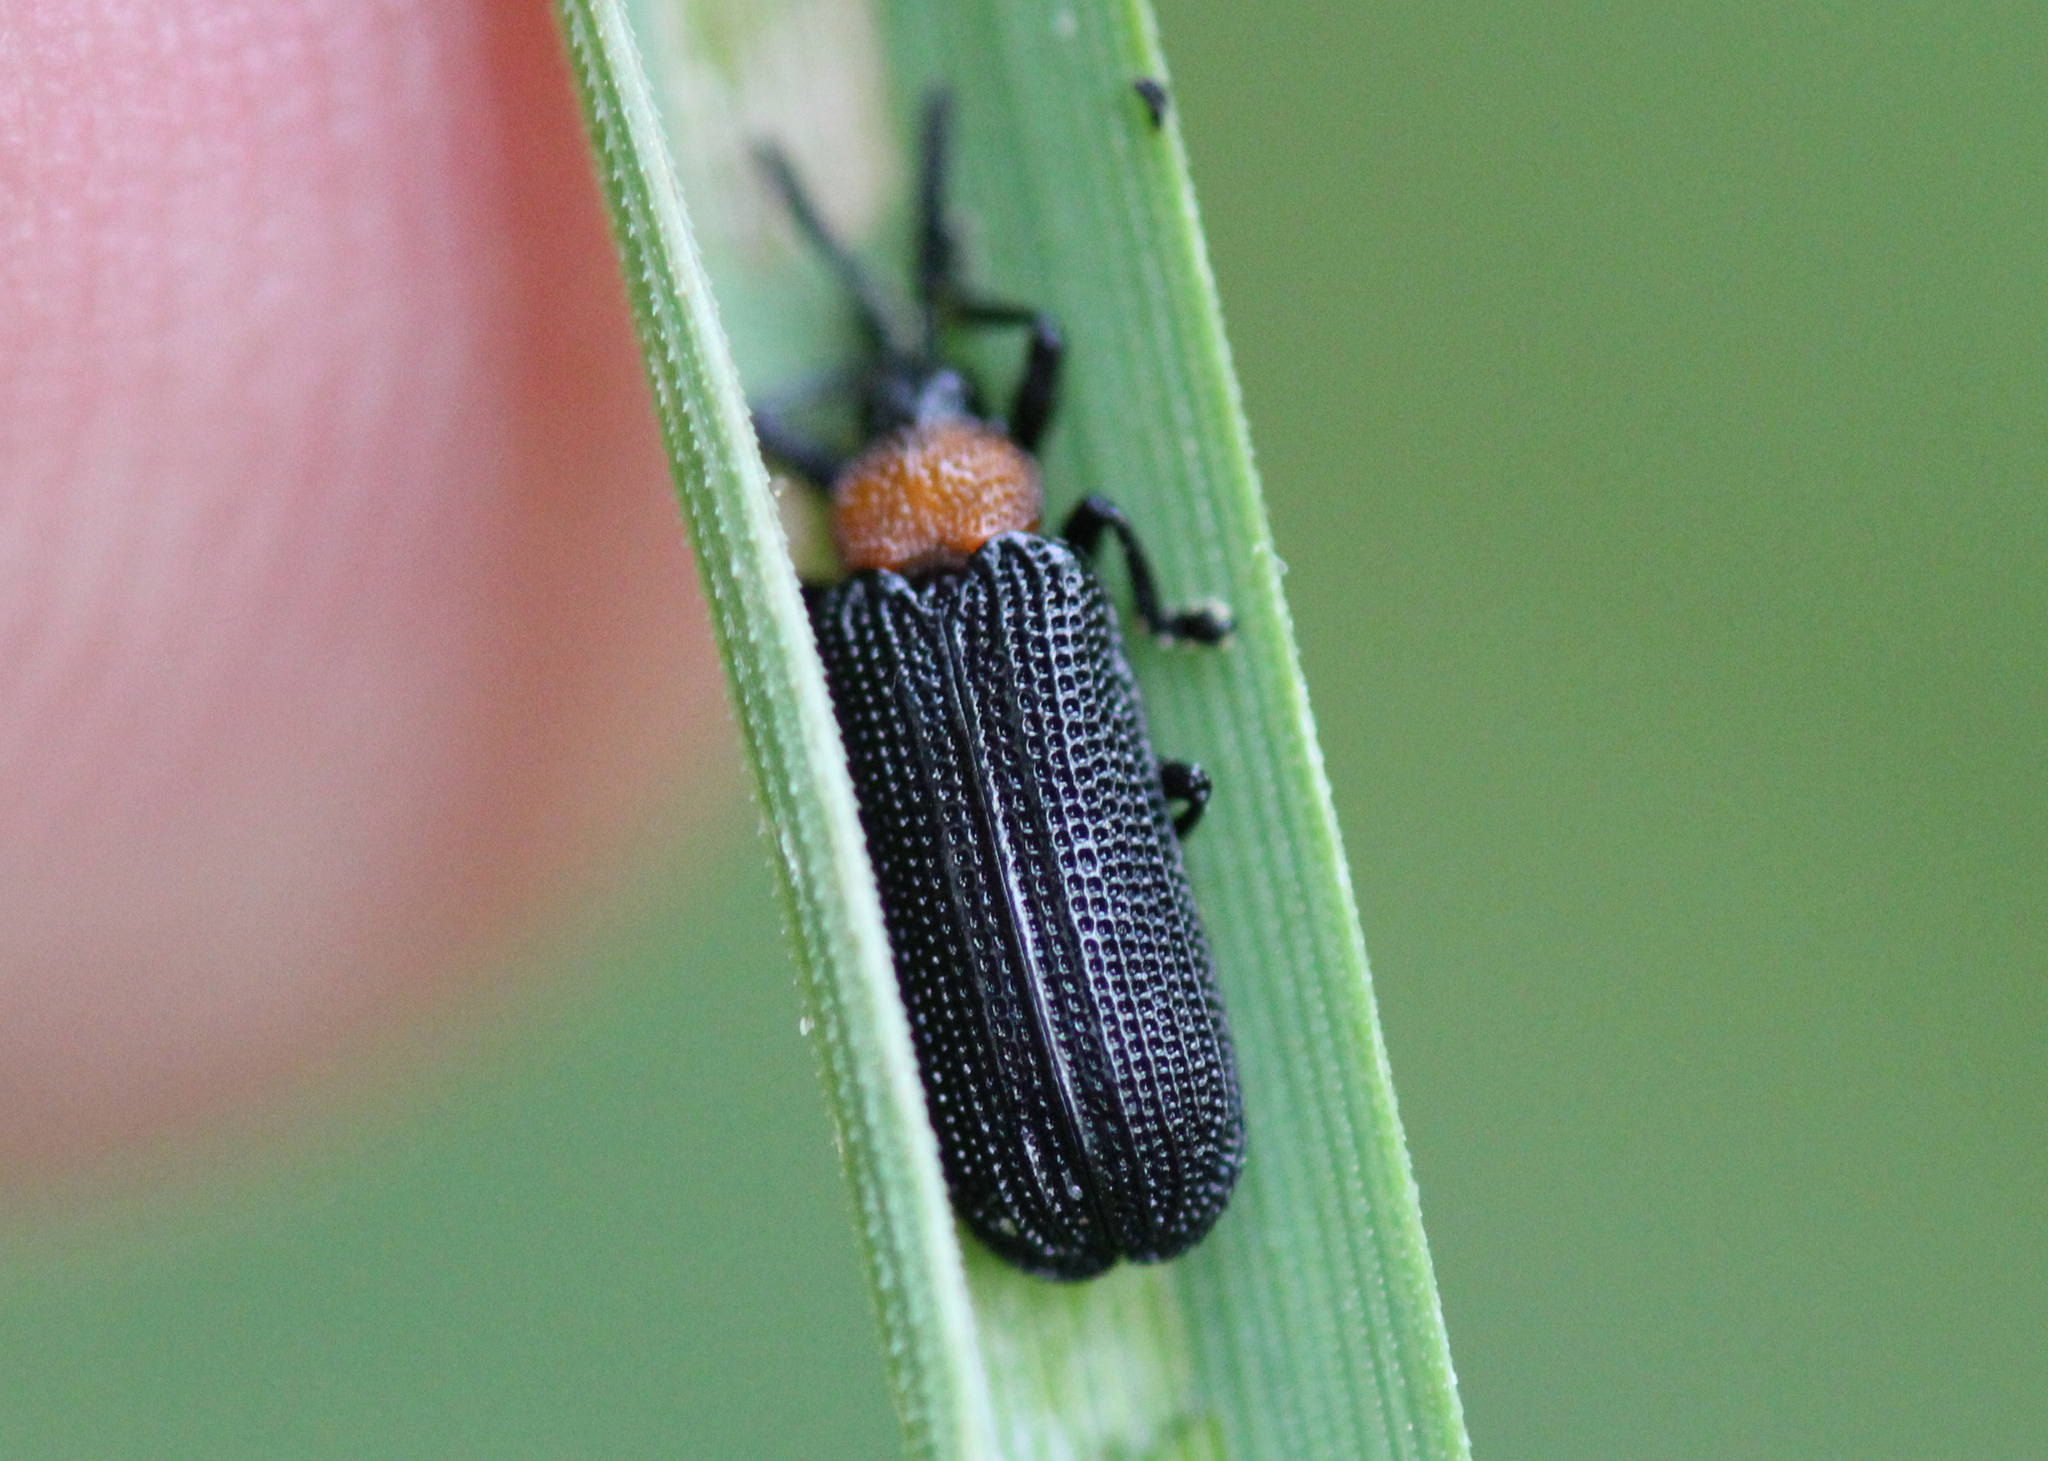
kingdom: Animalia
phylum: Arthropoda
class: Insecta
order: Coleoptera
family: Chrysomelidae
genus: Chalepus
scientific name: Chalepus walshii
